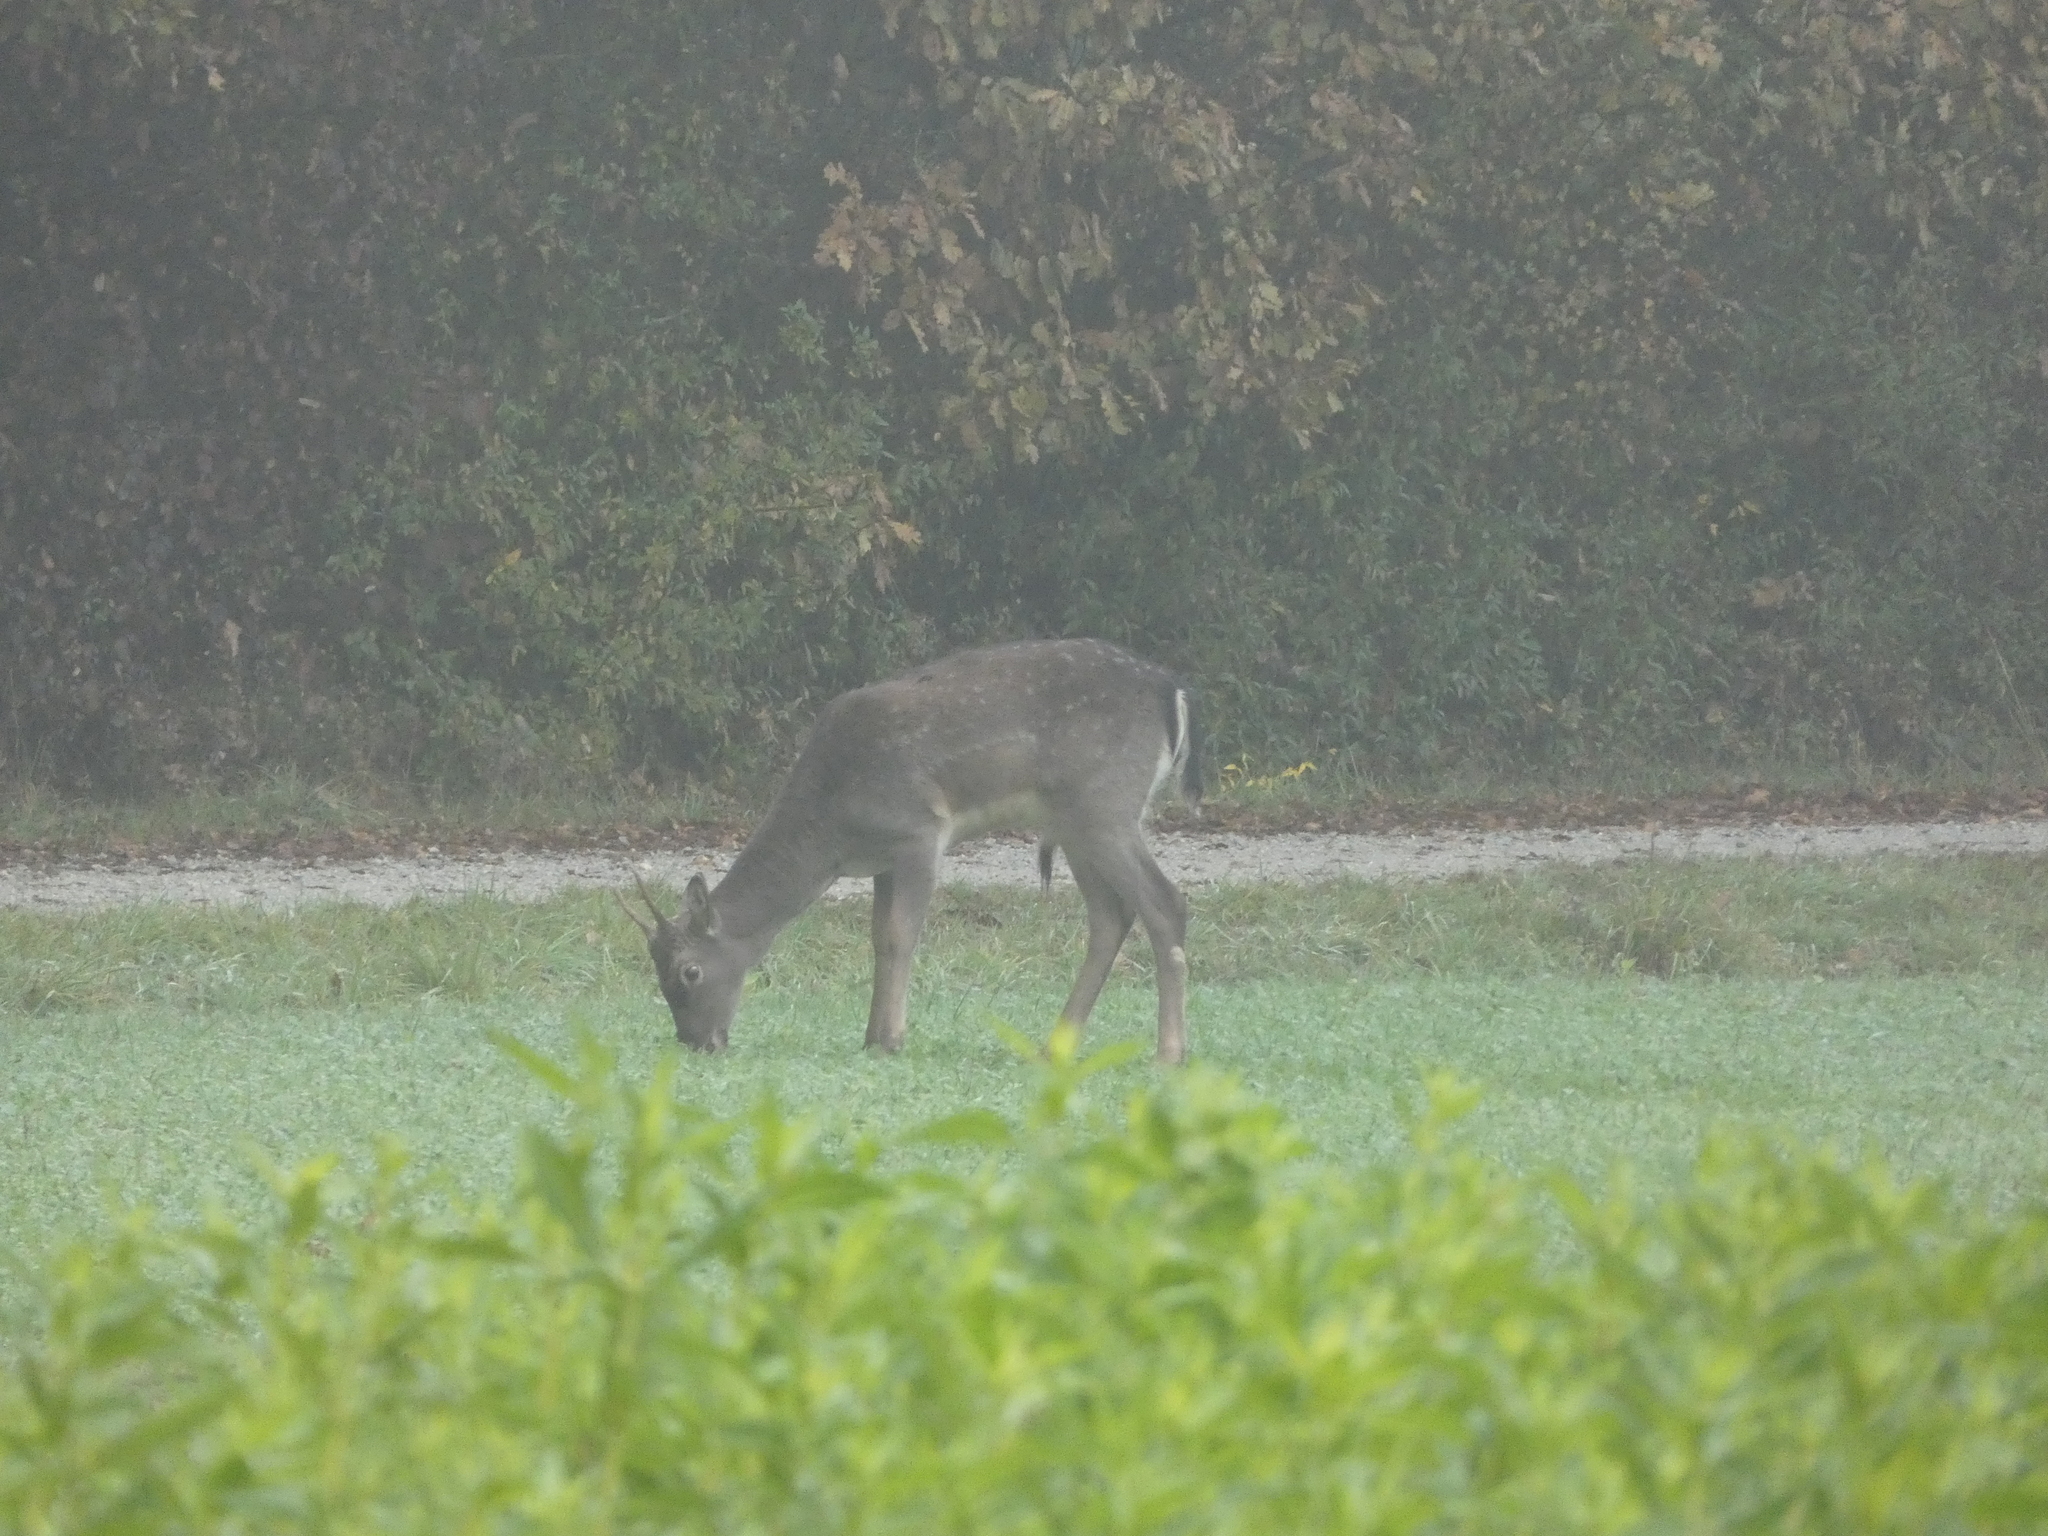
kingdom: Animalia
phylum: Chordata
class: Mammalia
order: Artiodactyla
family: Cervidae
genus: Dama
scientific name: Dama dama
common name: Fallow deer
